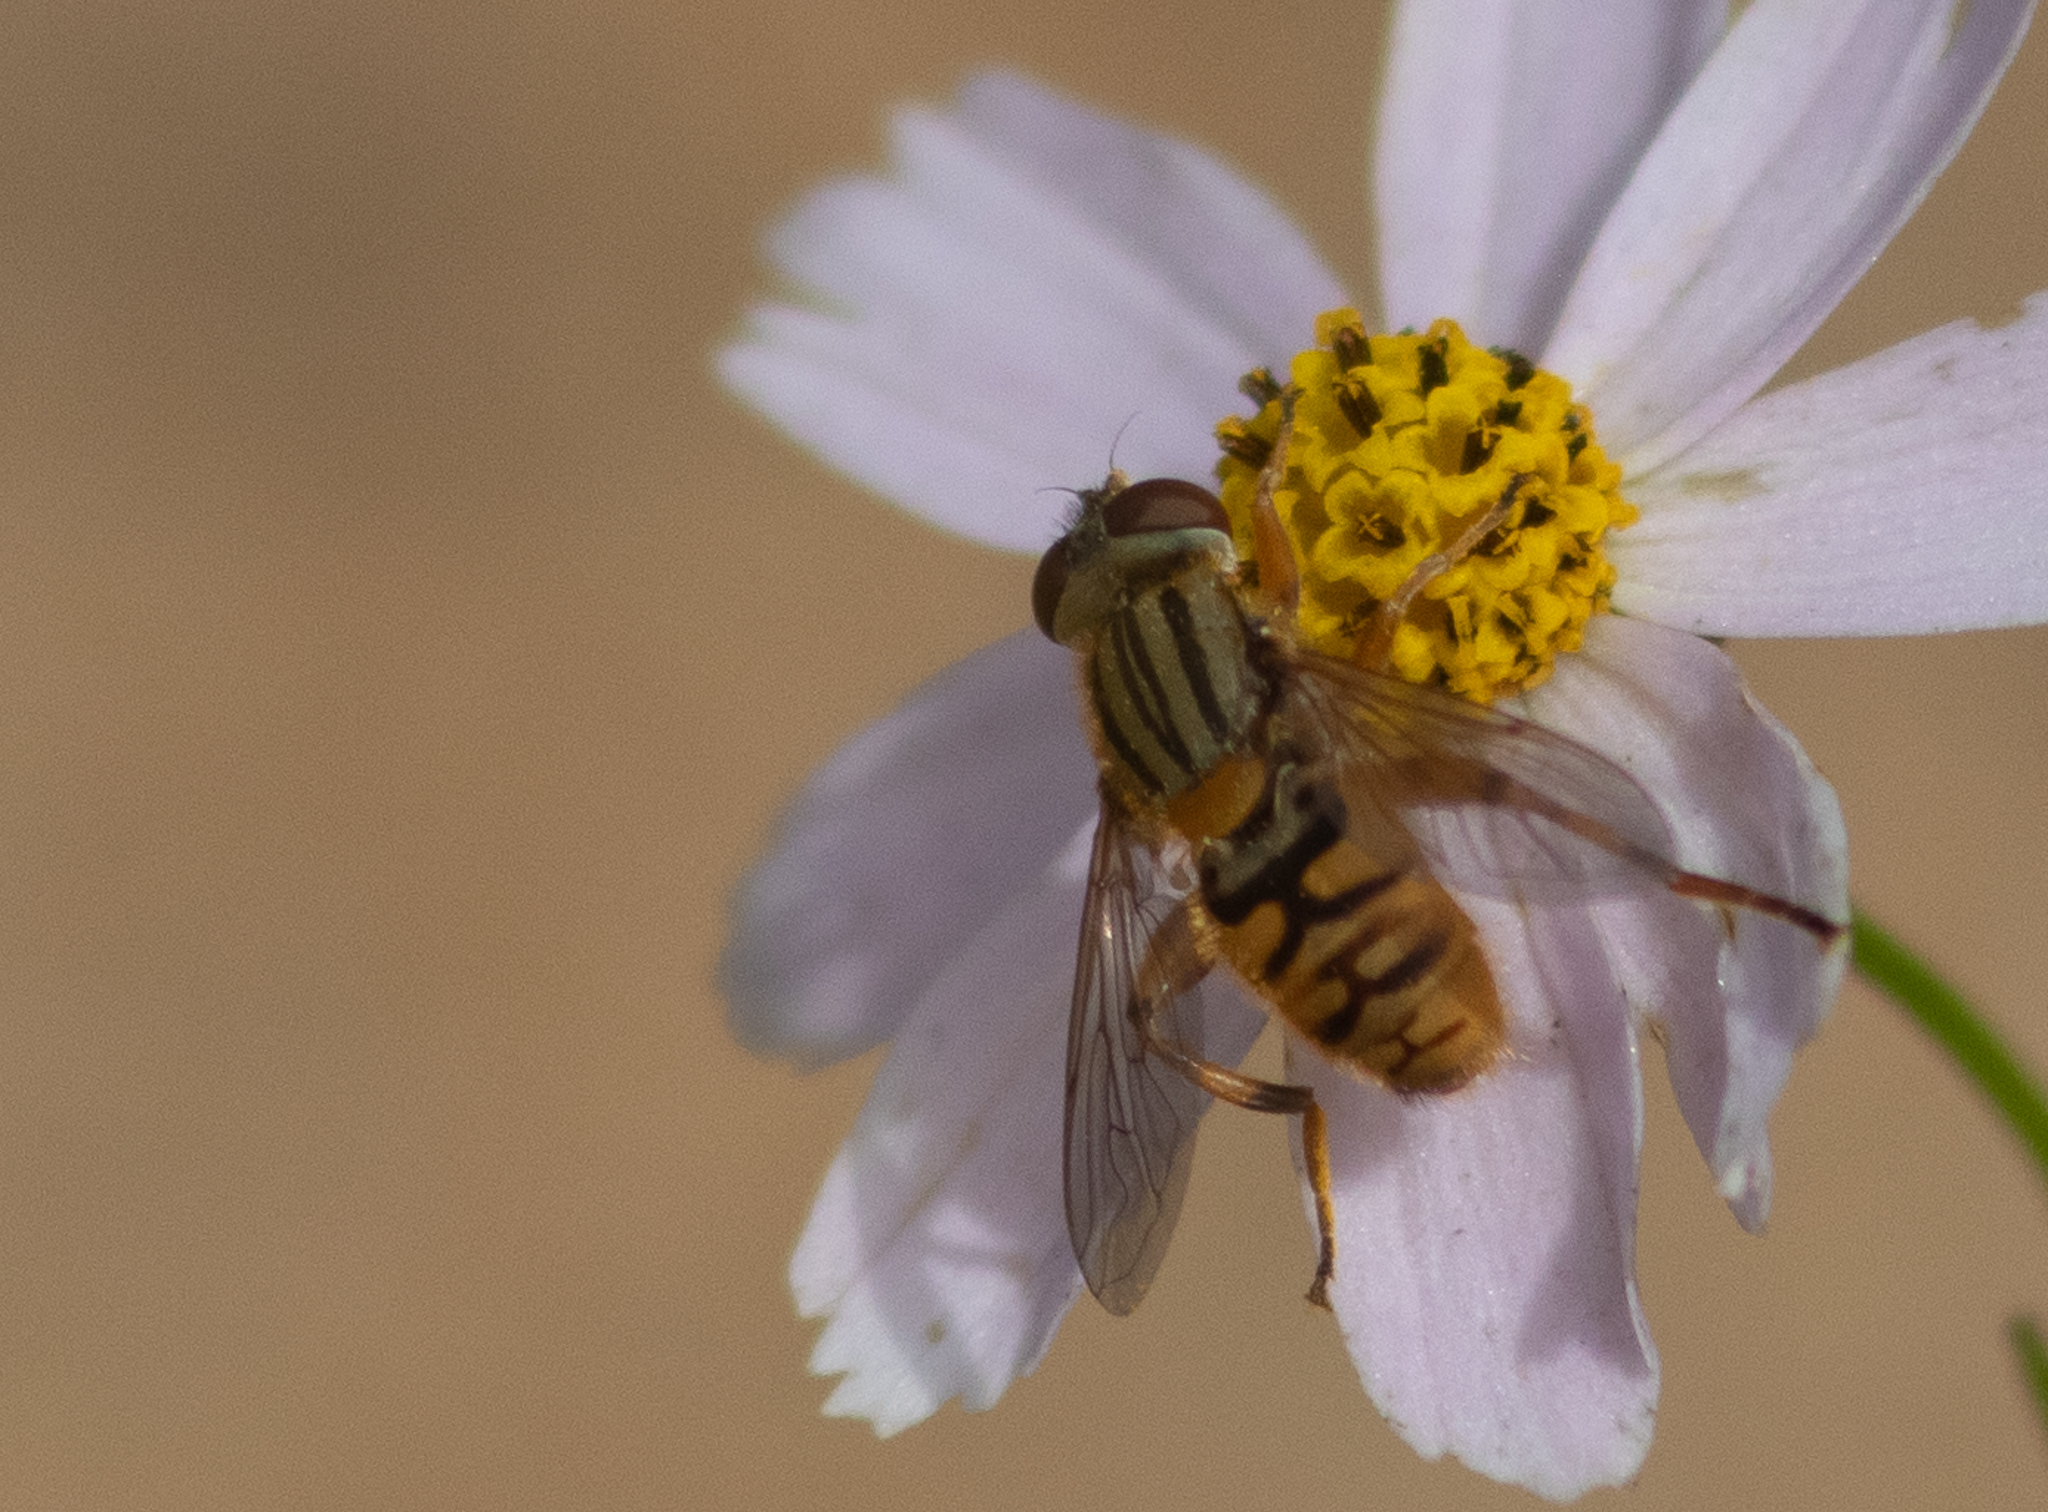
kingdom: Animalia
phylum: Arthropoda
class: Insecta
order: Diptera
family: Syrphidae
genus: Parhelophilus
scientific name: Parhelophilus divisus
